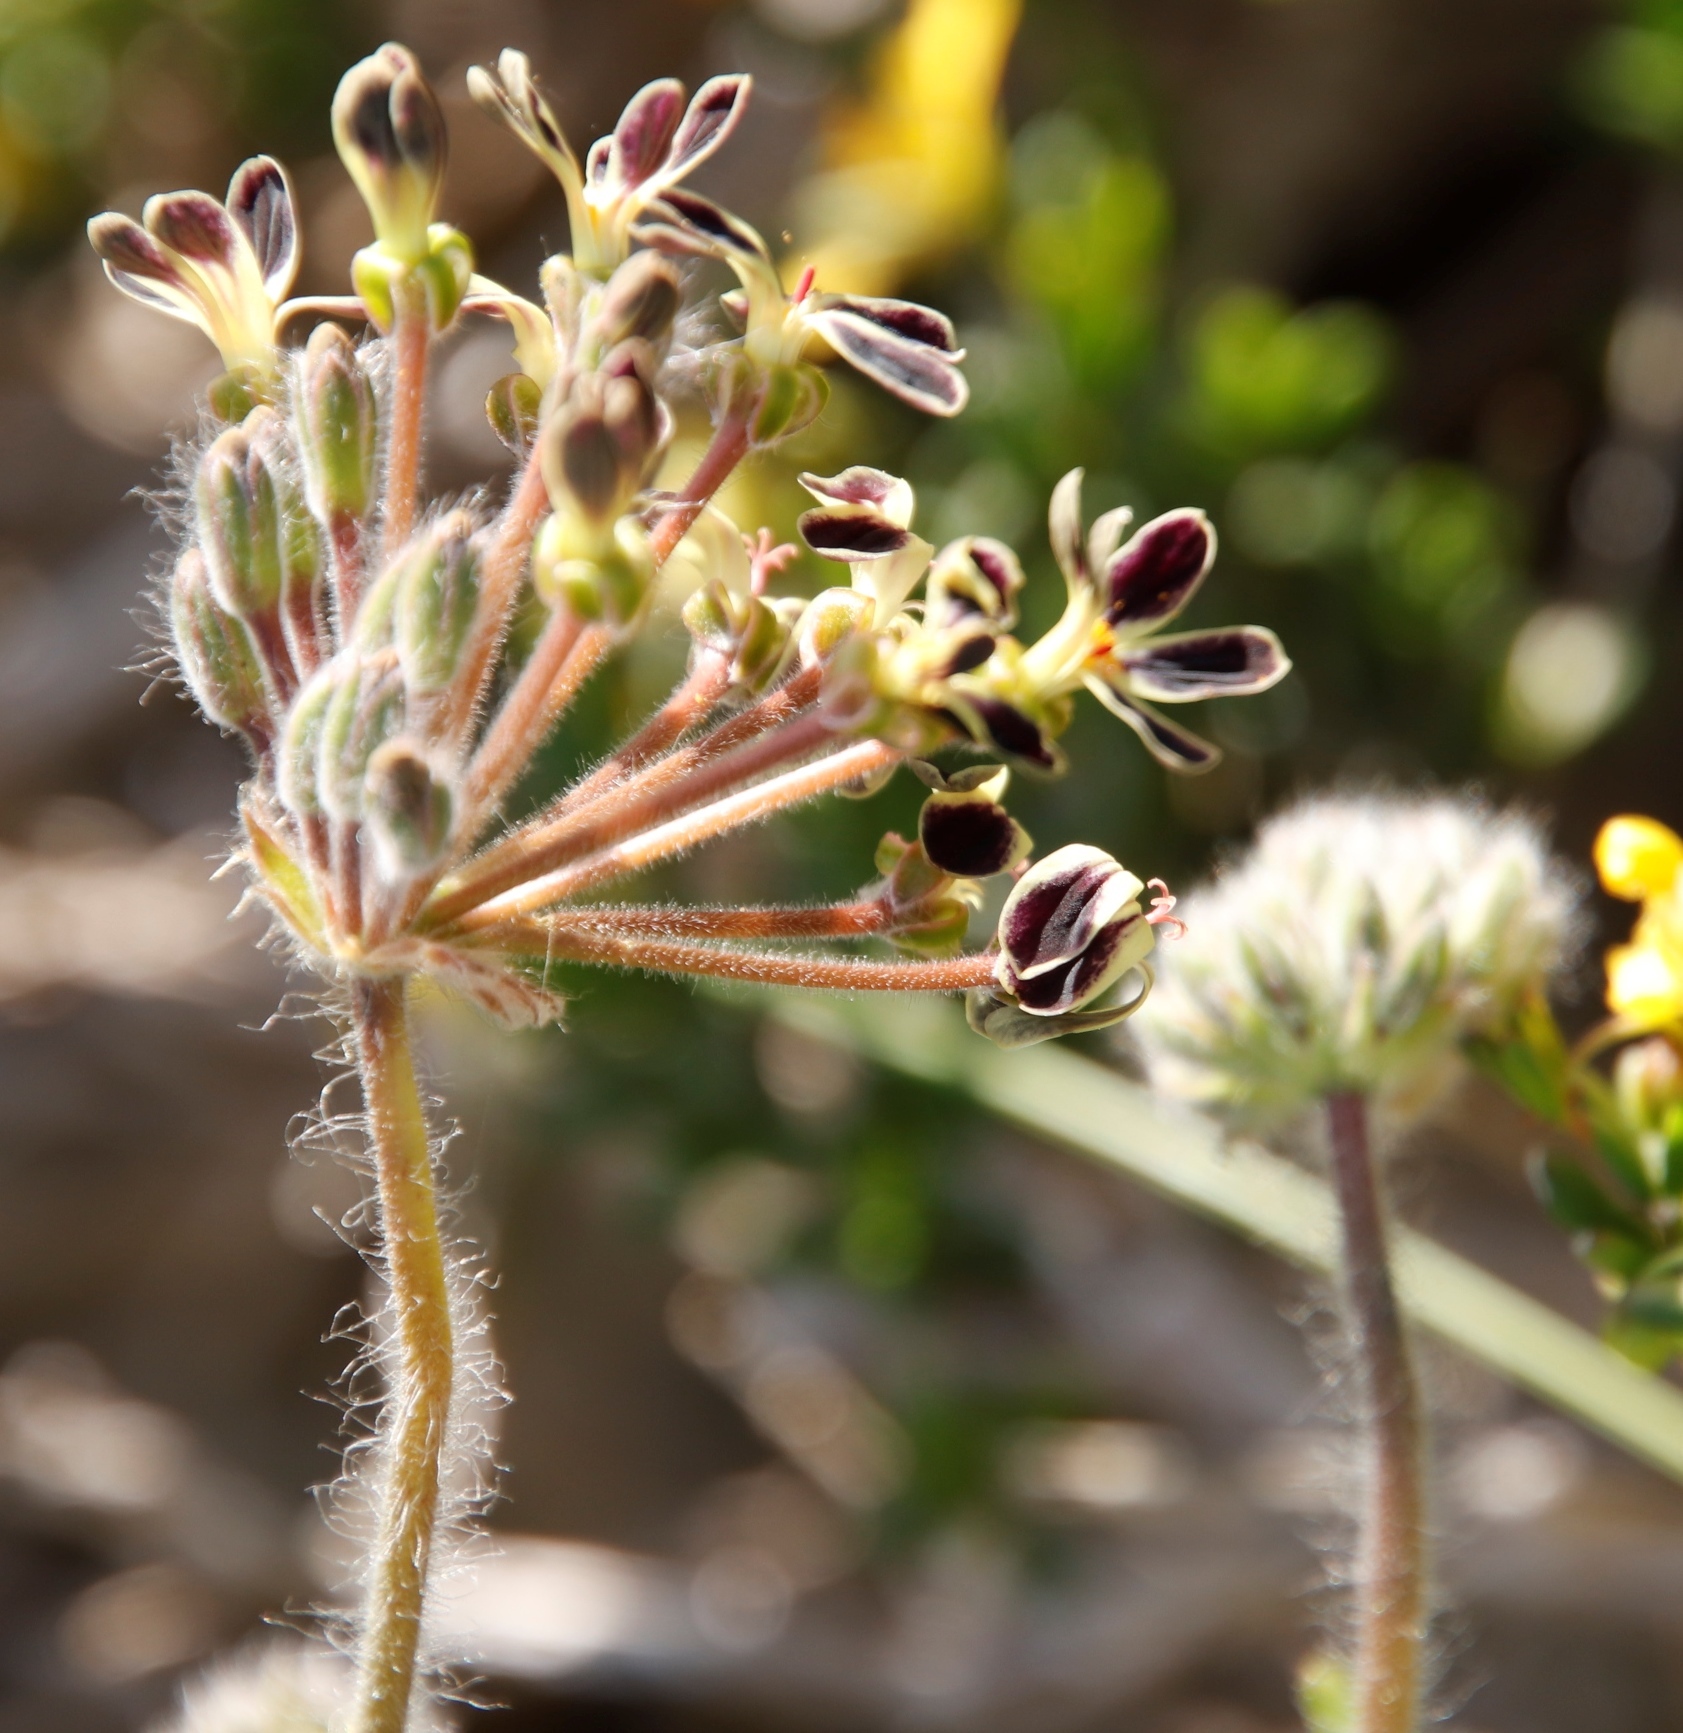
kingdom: Plantae
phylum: Tracheophyta
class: Magnoliopsida
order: Geraniales
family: Geraniaceae
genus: Pelargonium
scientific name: Pelargonium lobatum
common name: Vine-leaf pelargonium
